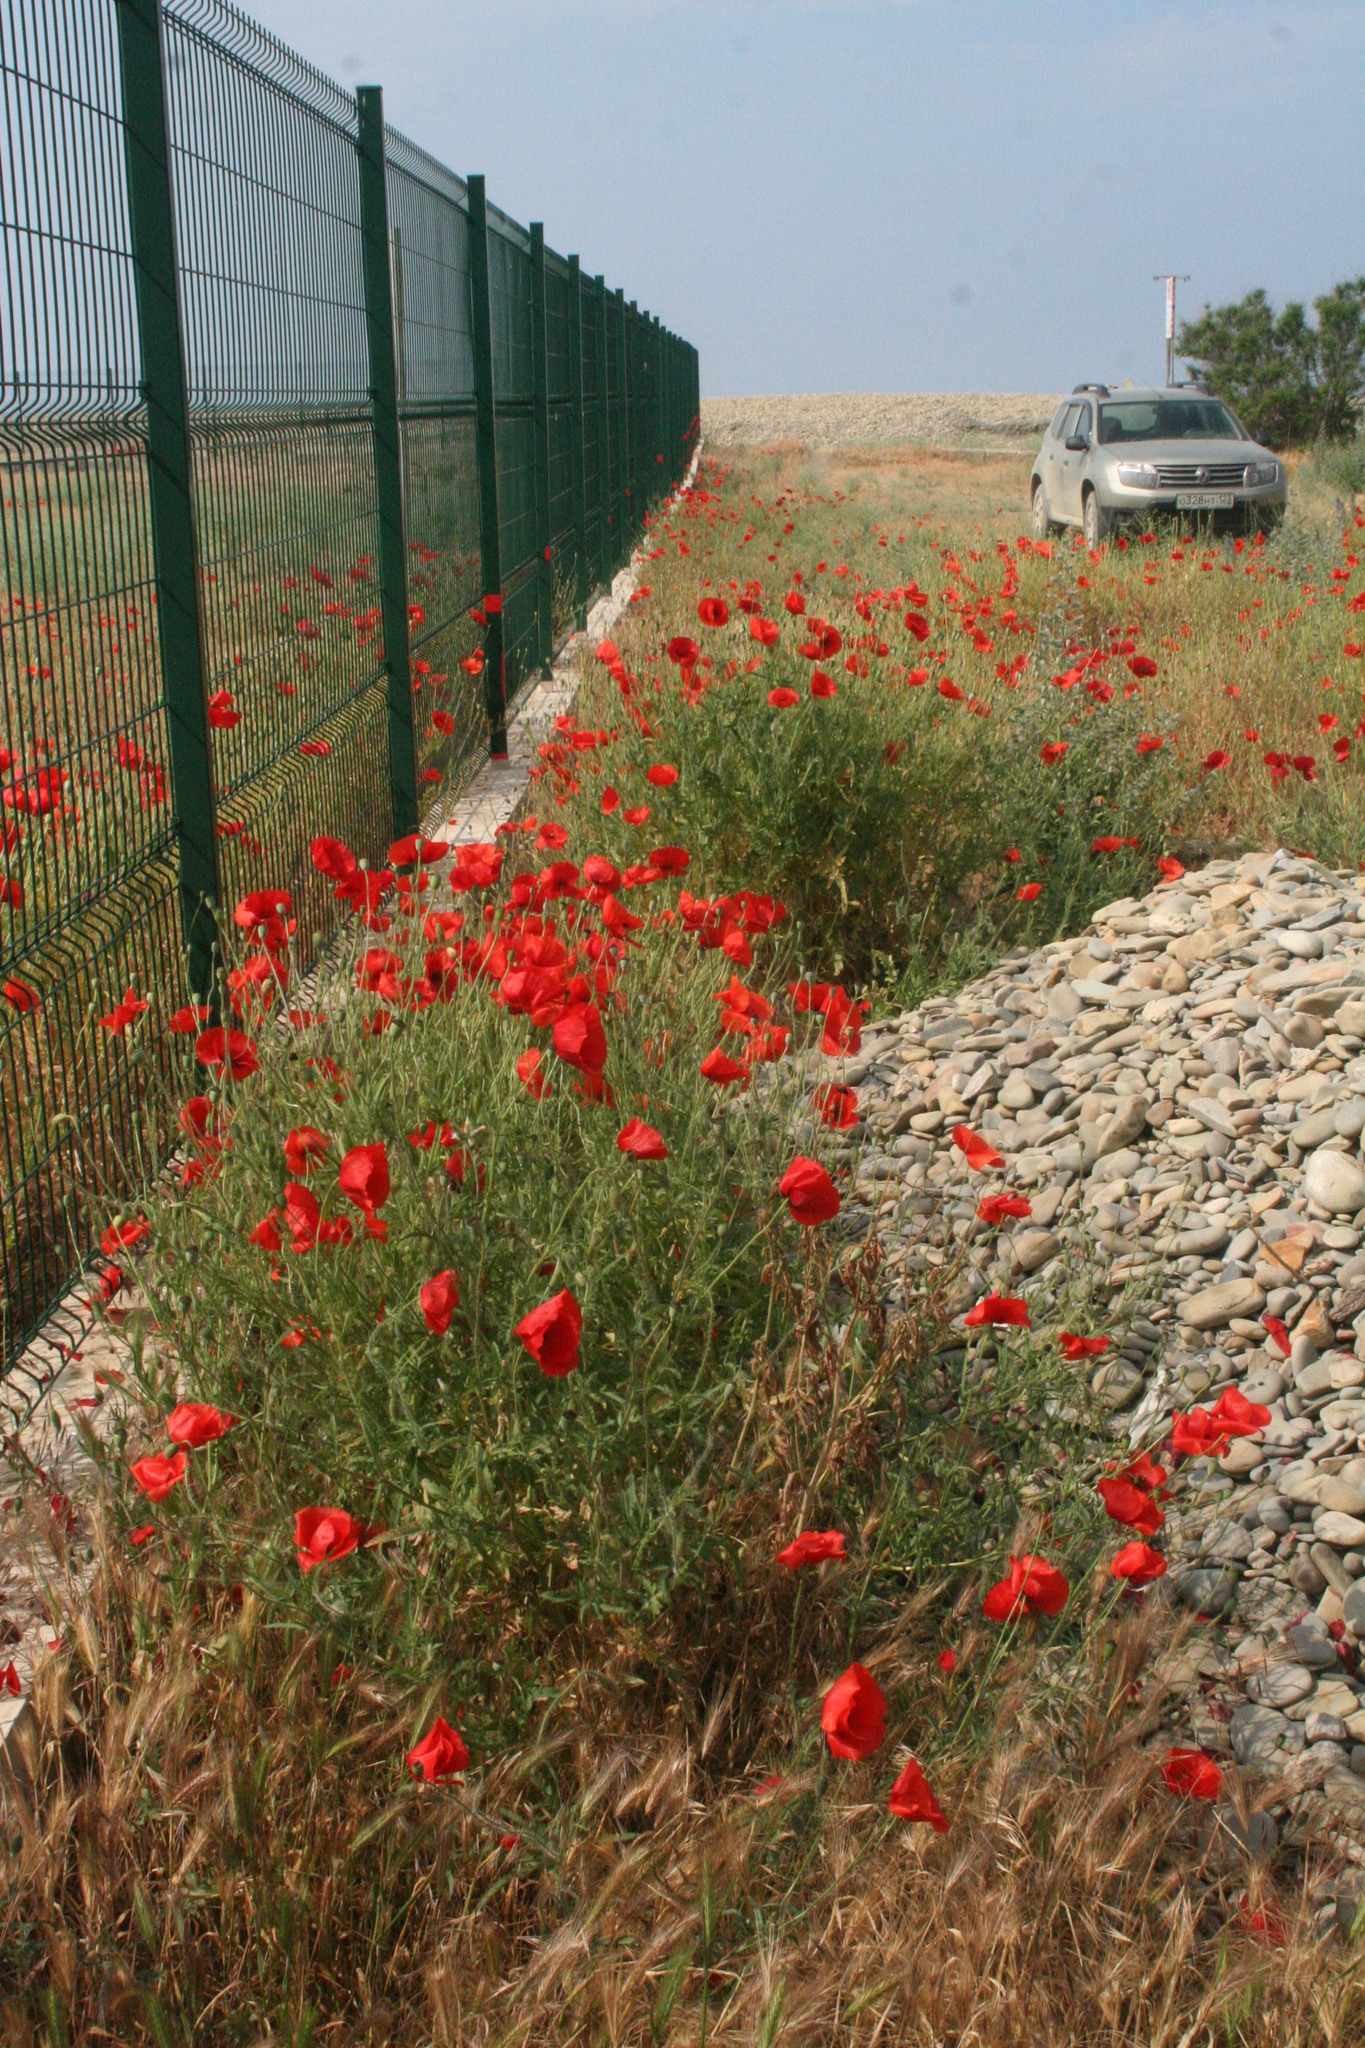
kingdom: Plantae
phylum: Tracheophyta
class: Magnoliopsida
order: Ranunculales
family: Papaveraceae
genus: Papaver
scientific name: Papaver rhoeas
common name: Corn poppy
